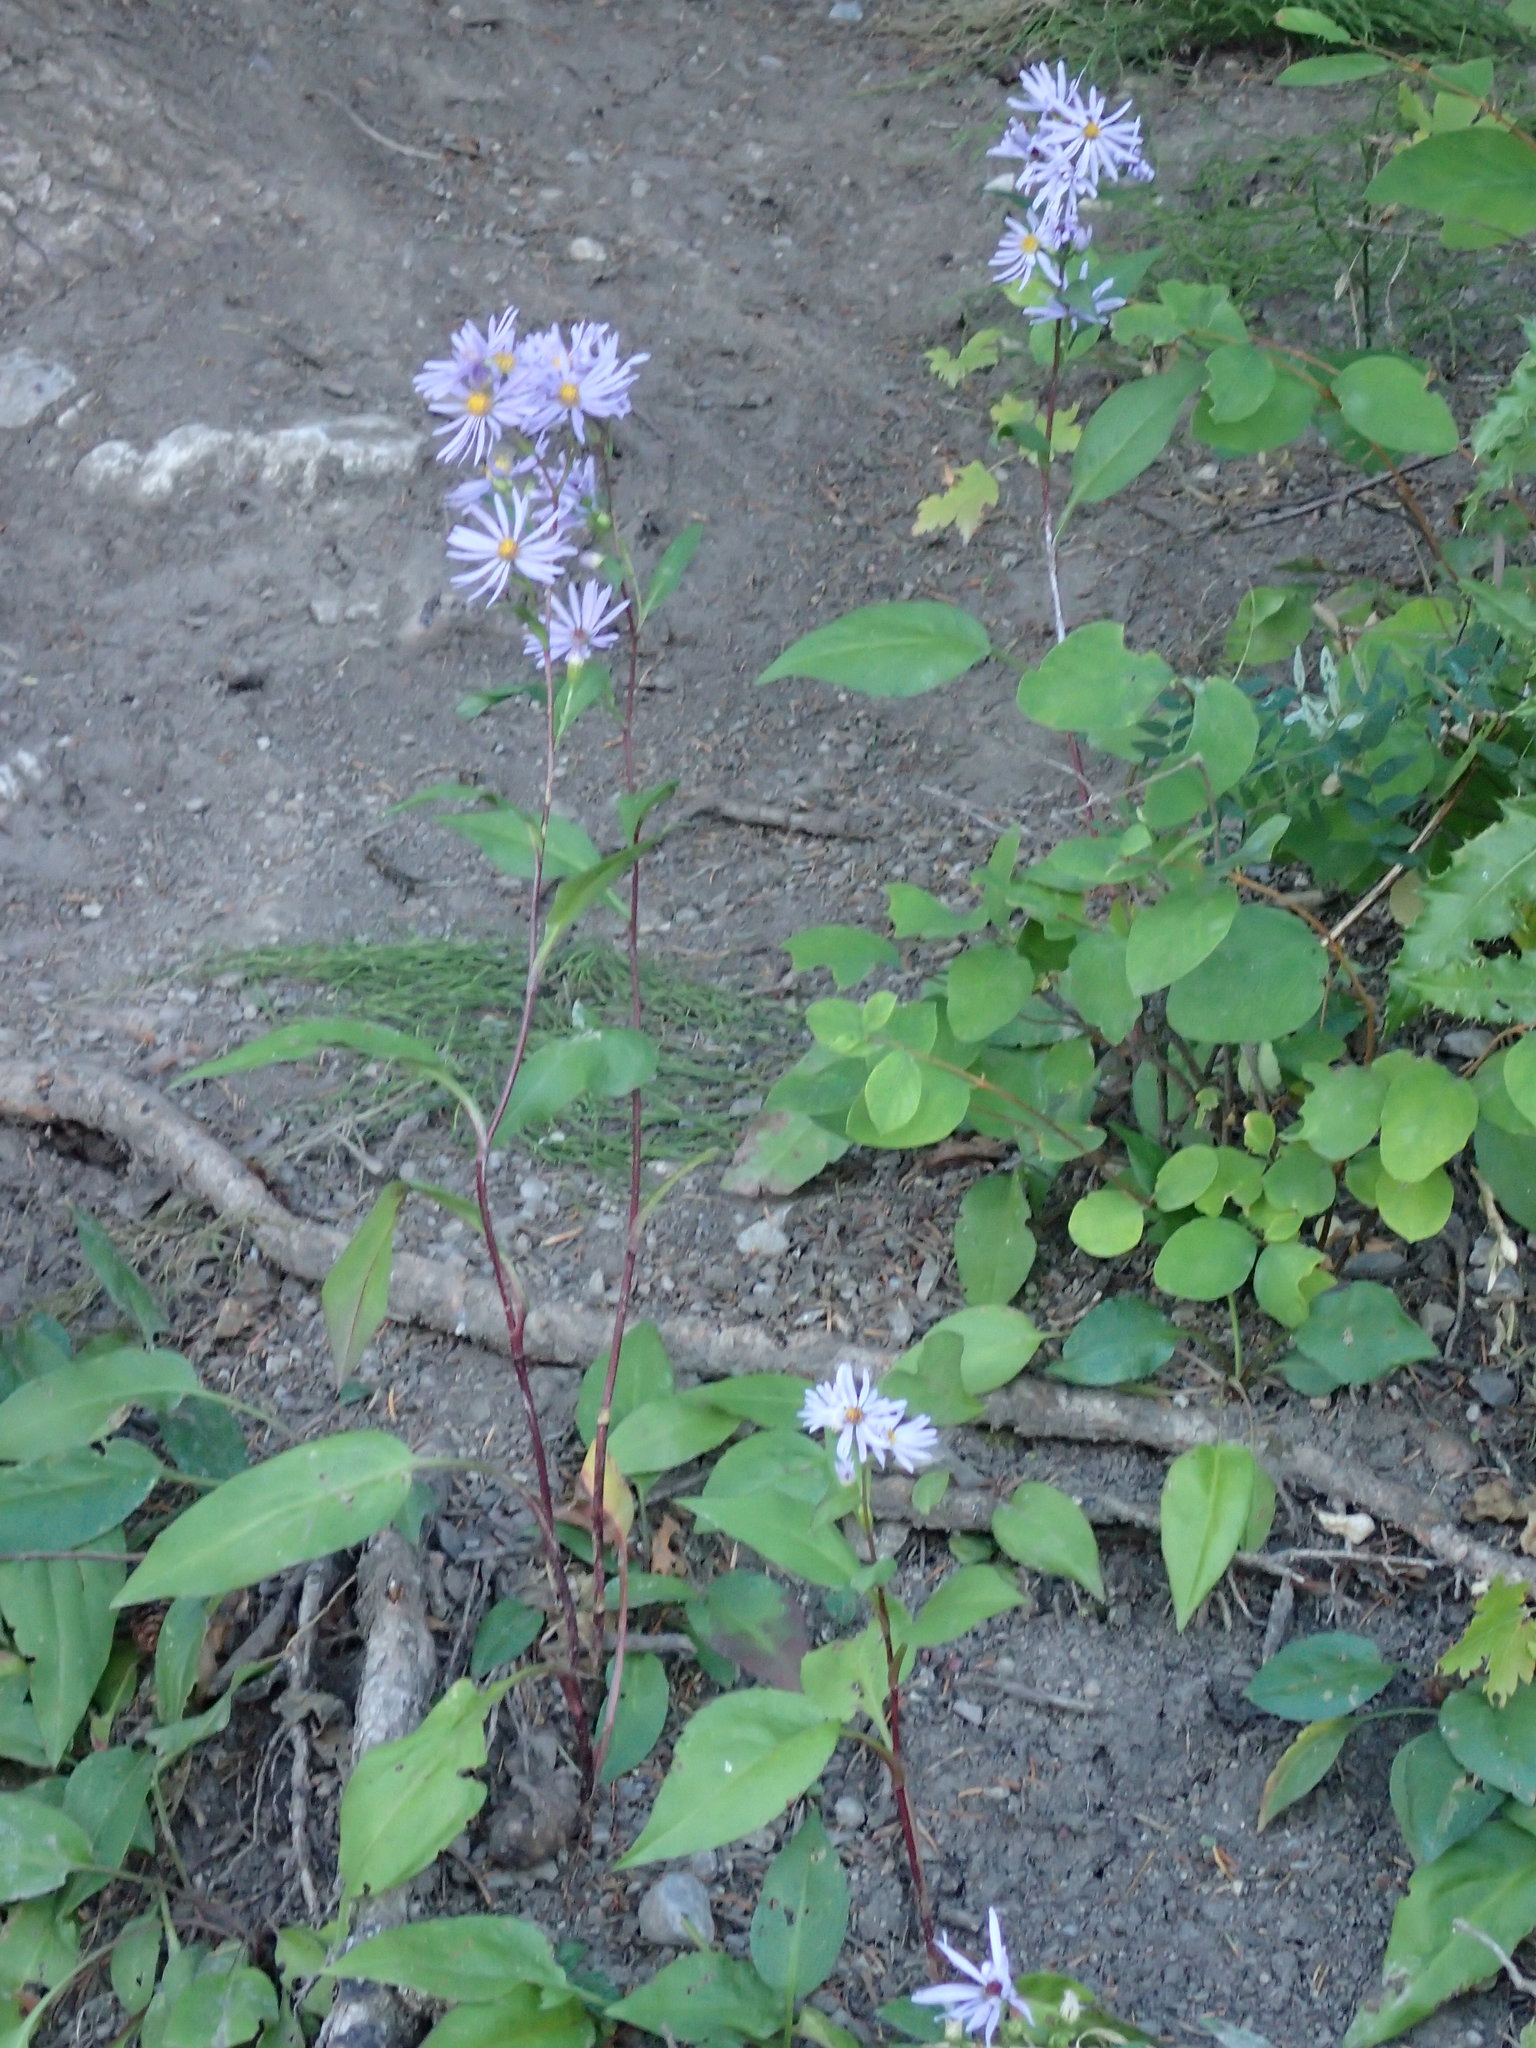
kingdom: Plantae
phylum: Tracheophyta
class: Magnoliopsida
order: Asterales
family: Asteraceae
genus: Symphyotrichum
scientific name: Symphyotrichum ciliolatum
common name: Fringed blue aster
